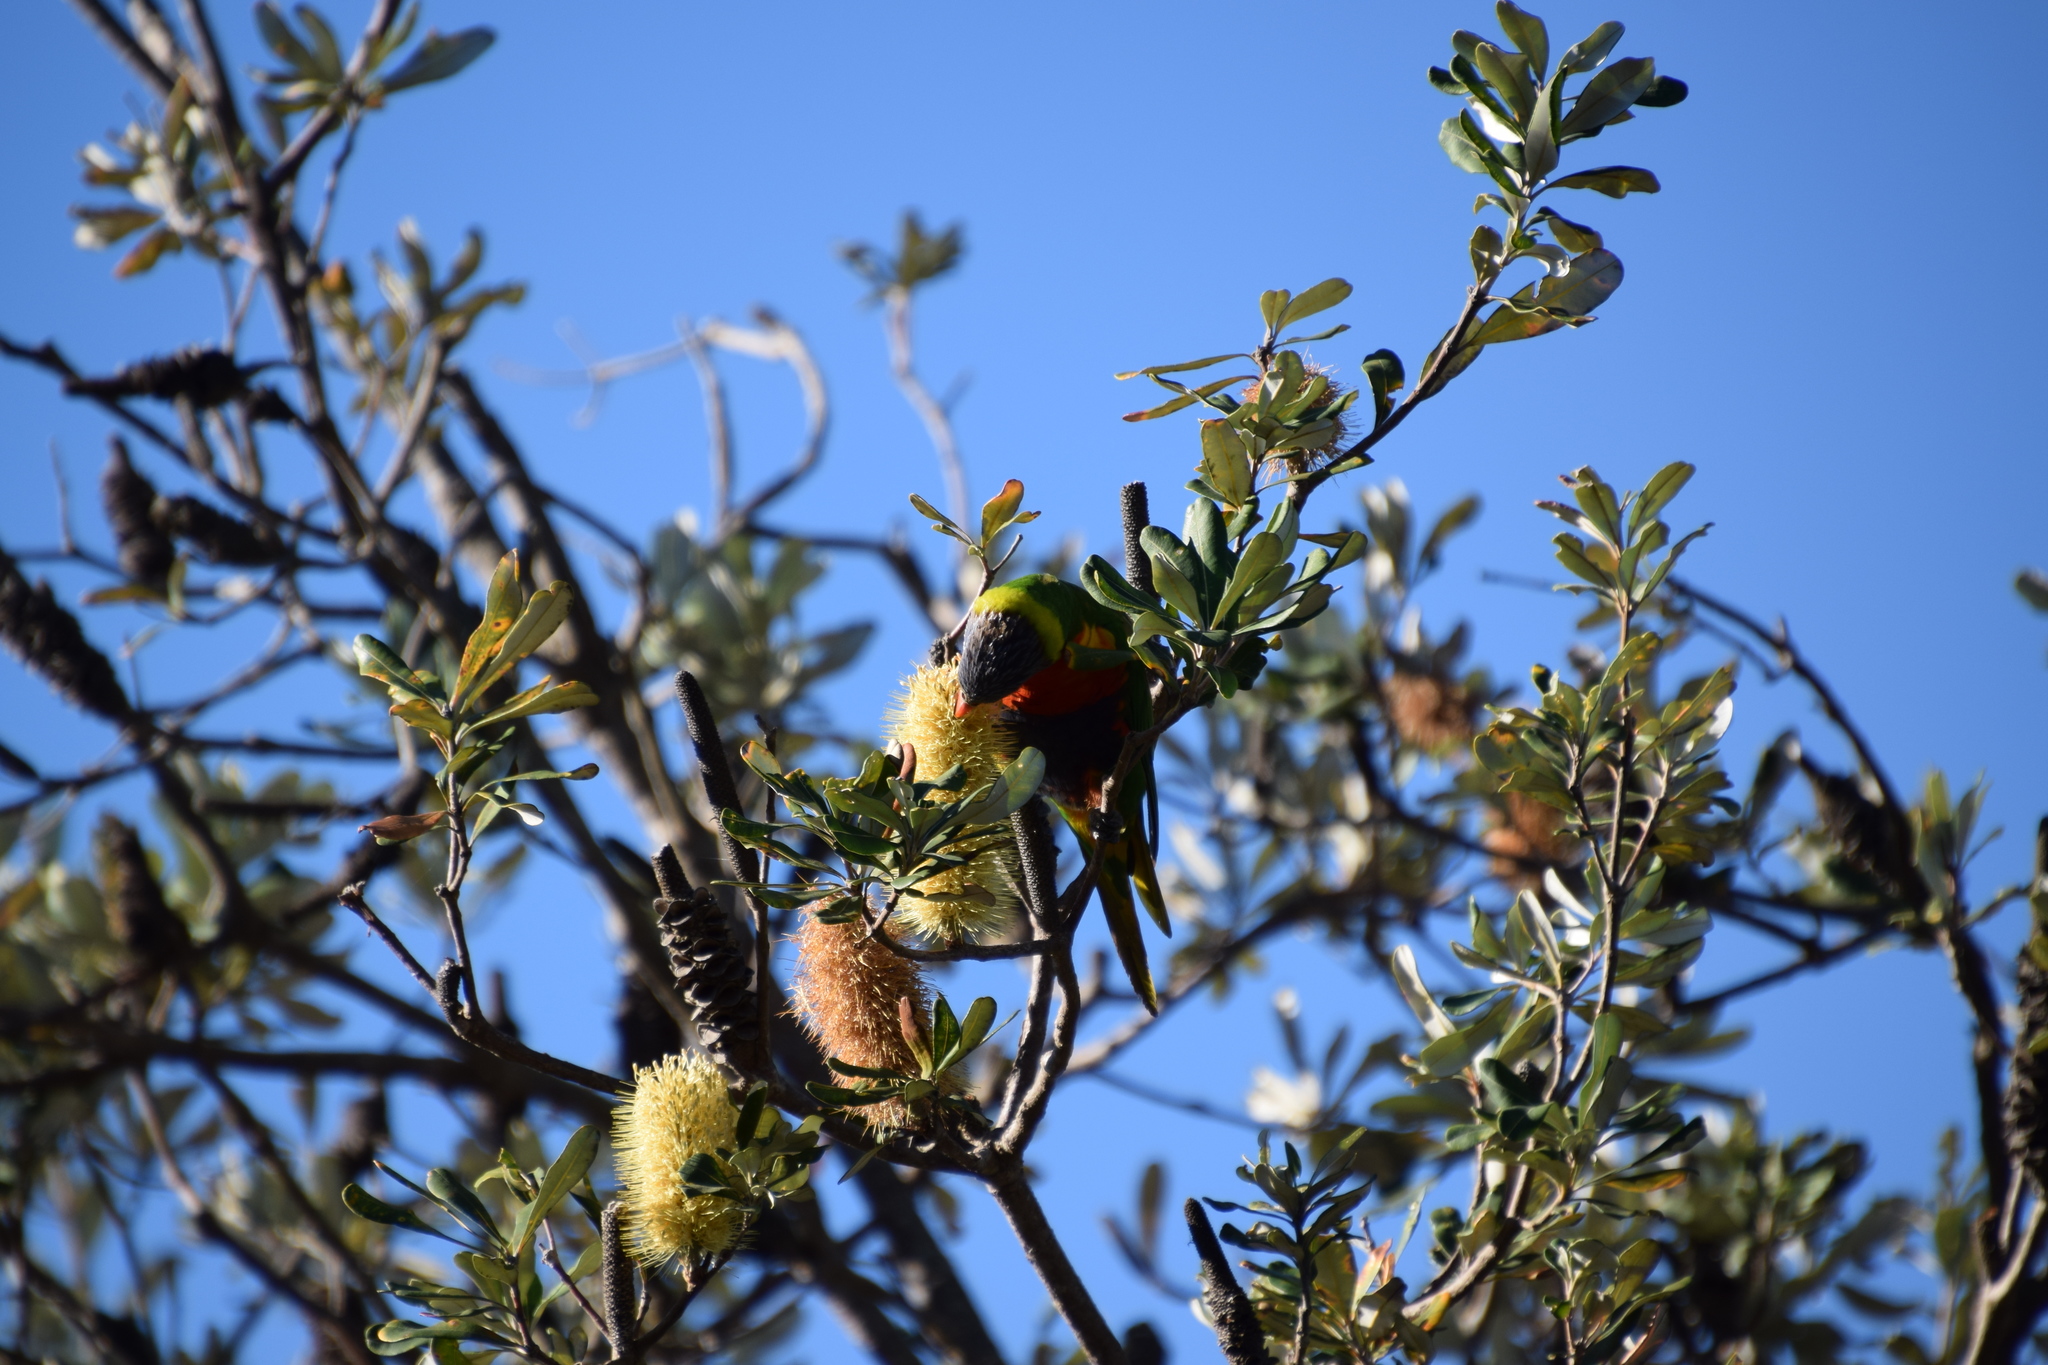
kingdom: Animalia
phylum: Chordata
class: Aves
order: Psittaciformes
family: Psittacidae
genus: Trichoglossus
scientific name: Trichoglossus haematodus
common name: Coconut lorikeet
